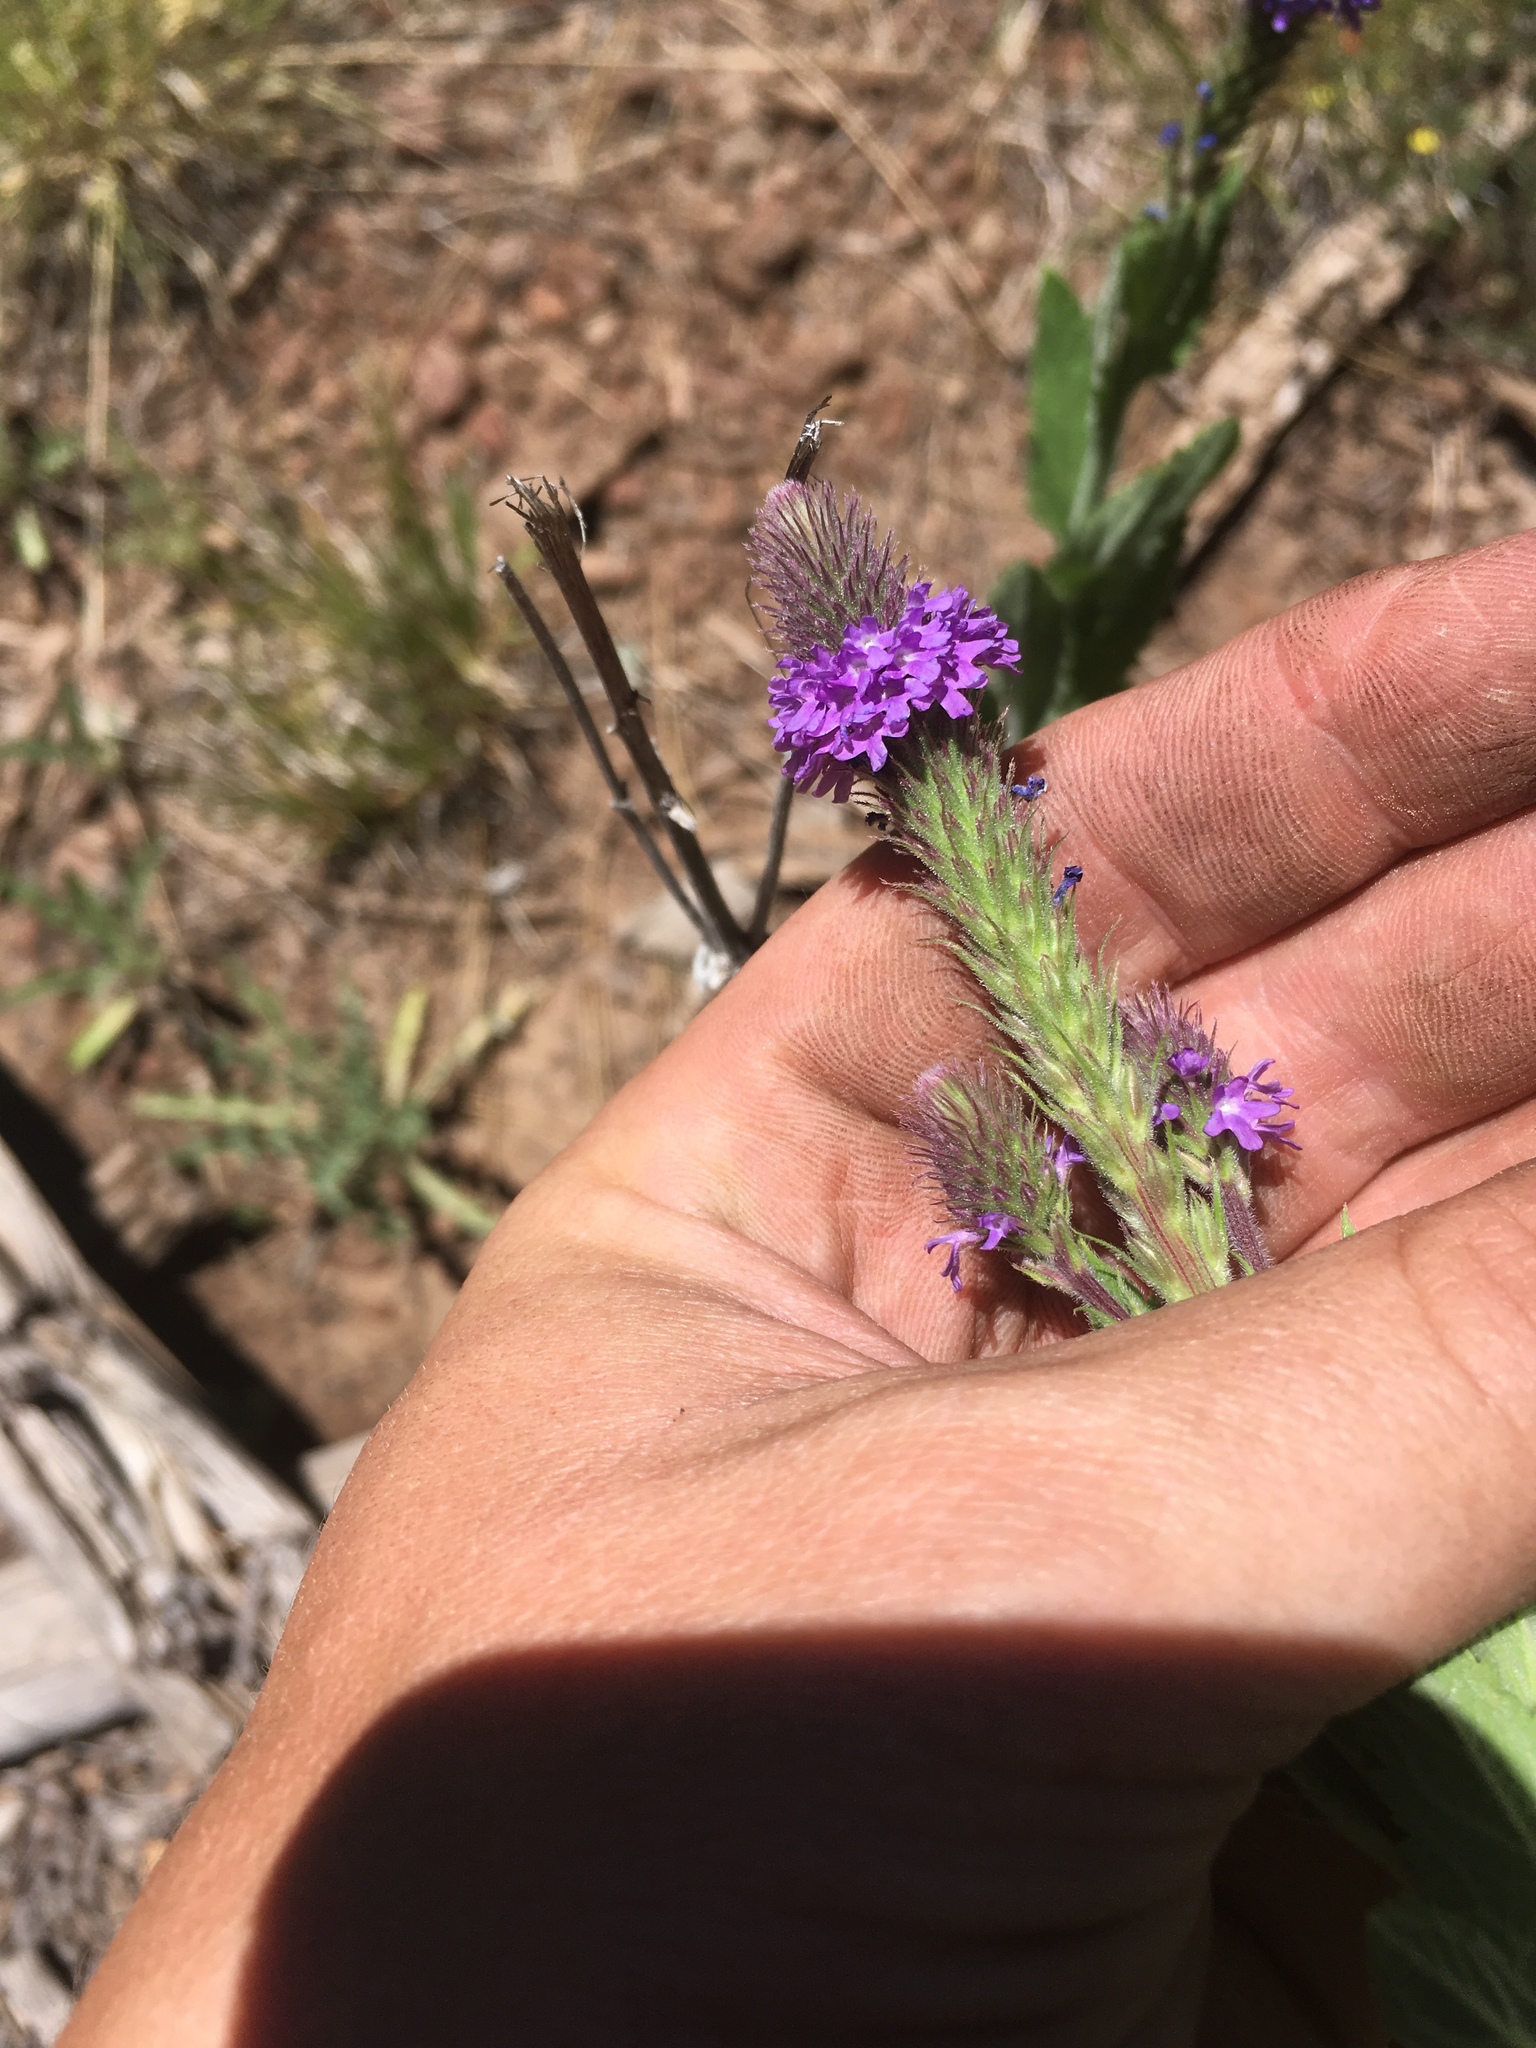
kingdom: Plantae
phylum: Tracheophyta
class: Magnoliopsida
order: Lamiales
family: Verbenaceae
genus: Verbena
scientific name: Verbena macdougalii
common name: New mexico vervain
